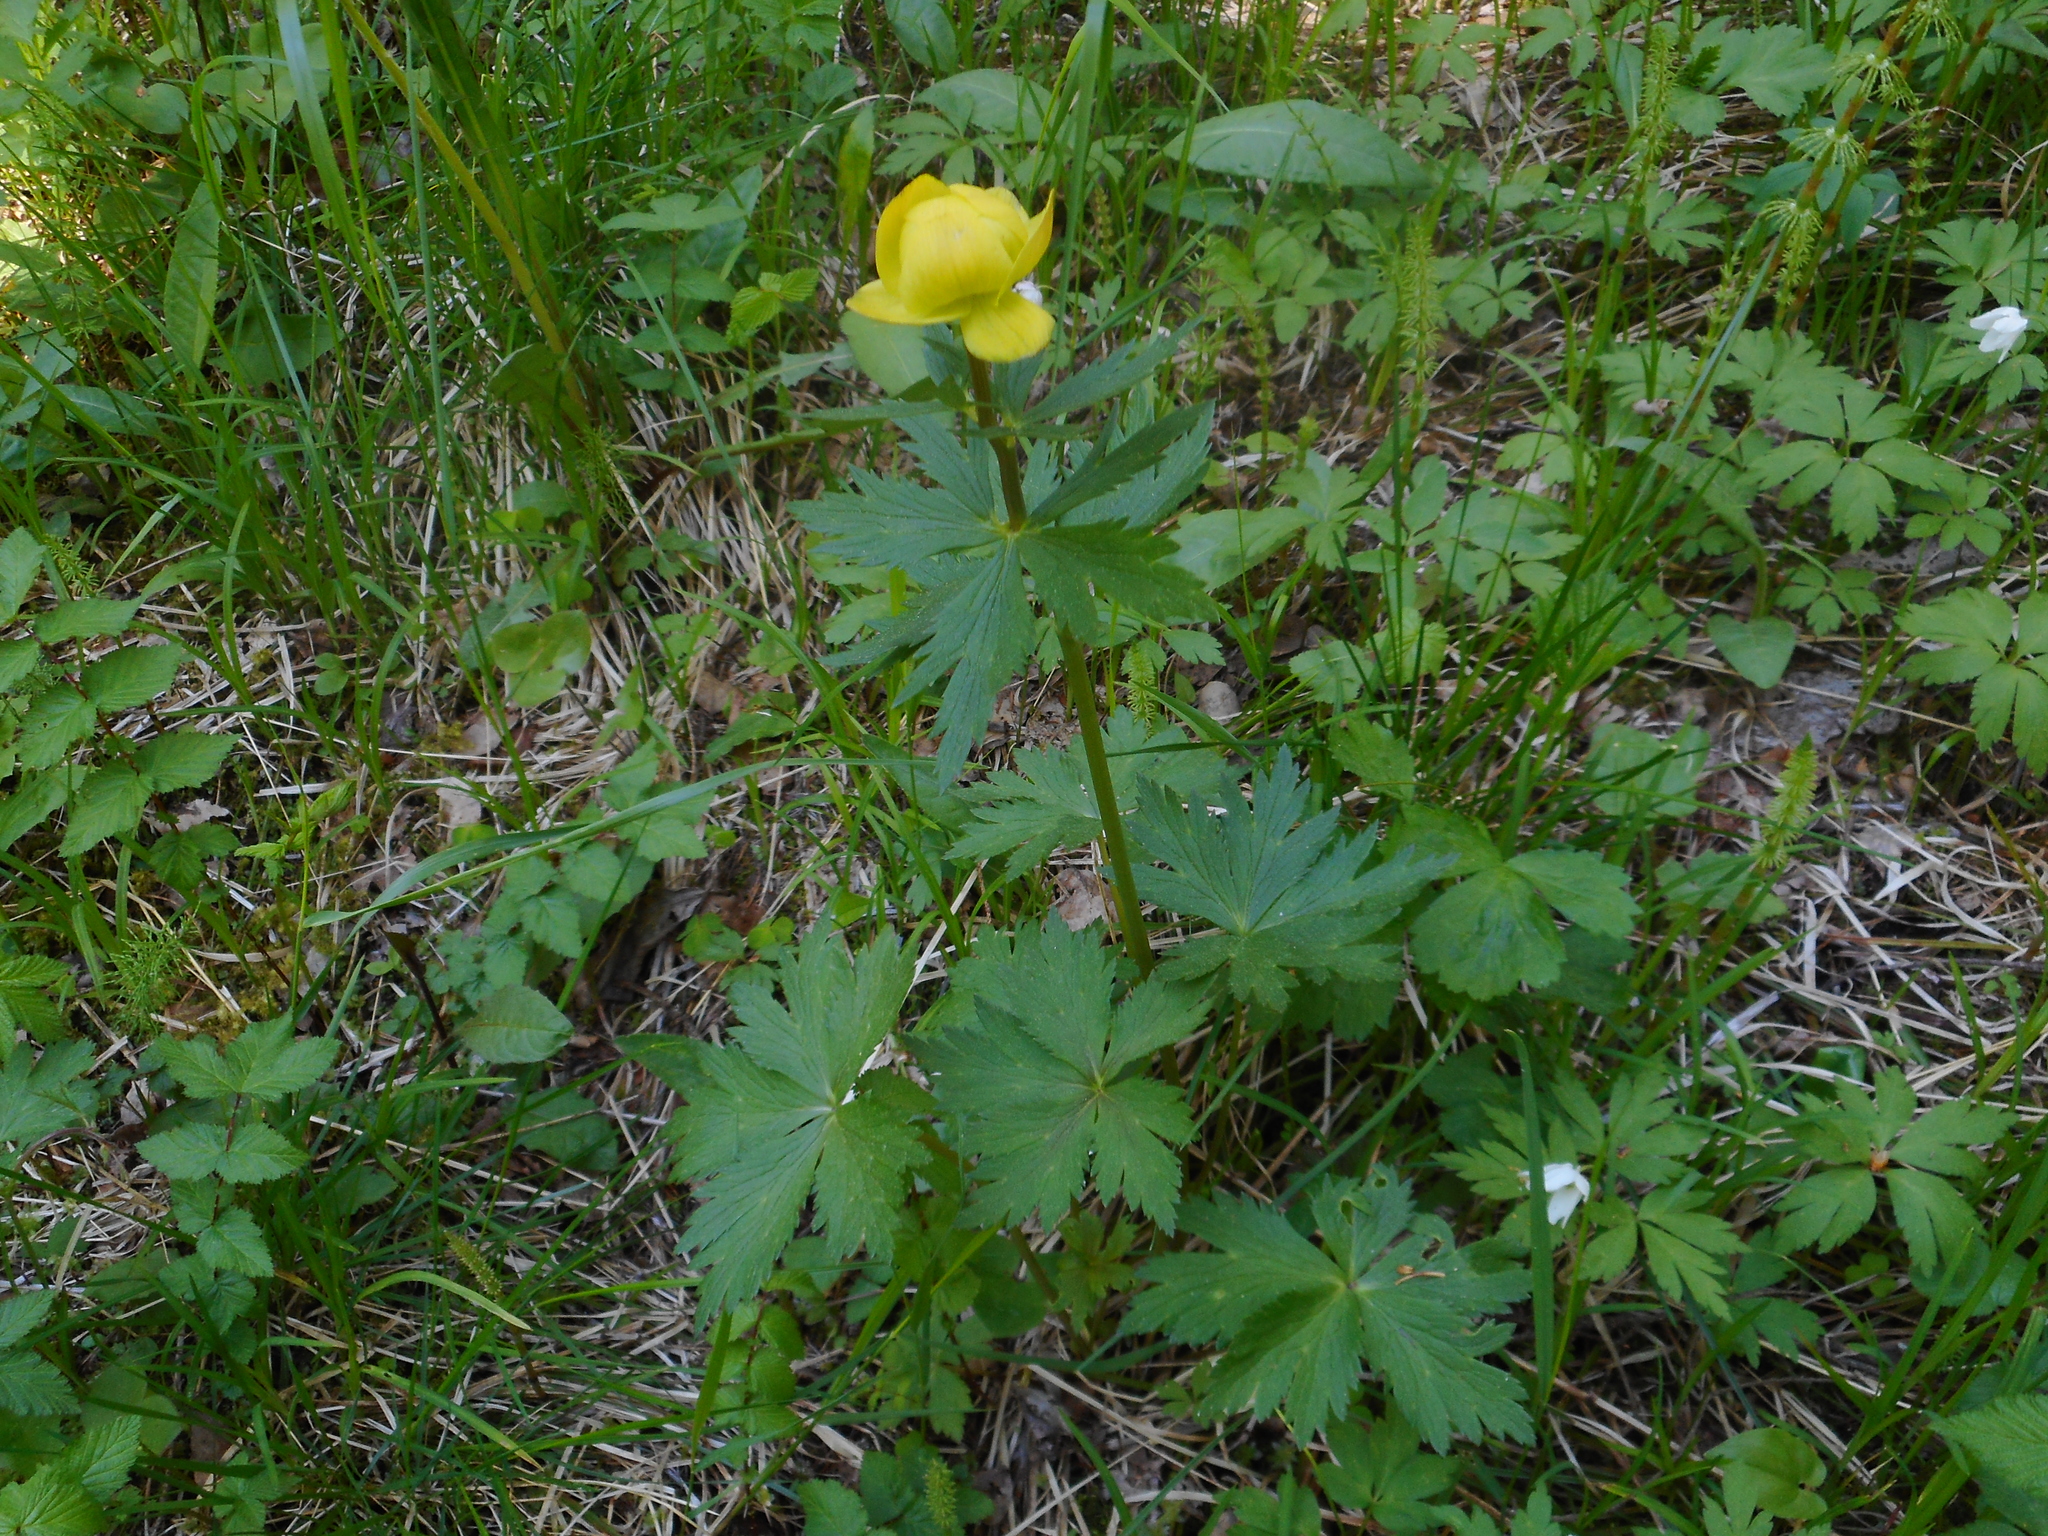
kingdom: Plantae
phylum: Tracheophyta
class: Magnoliopsida
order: Ranunculales
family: Ranunculaceae
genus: Trollius
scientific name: Trollius europaeus
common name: European globeflower
